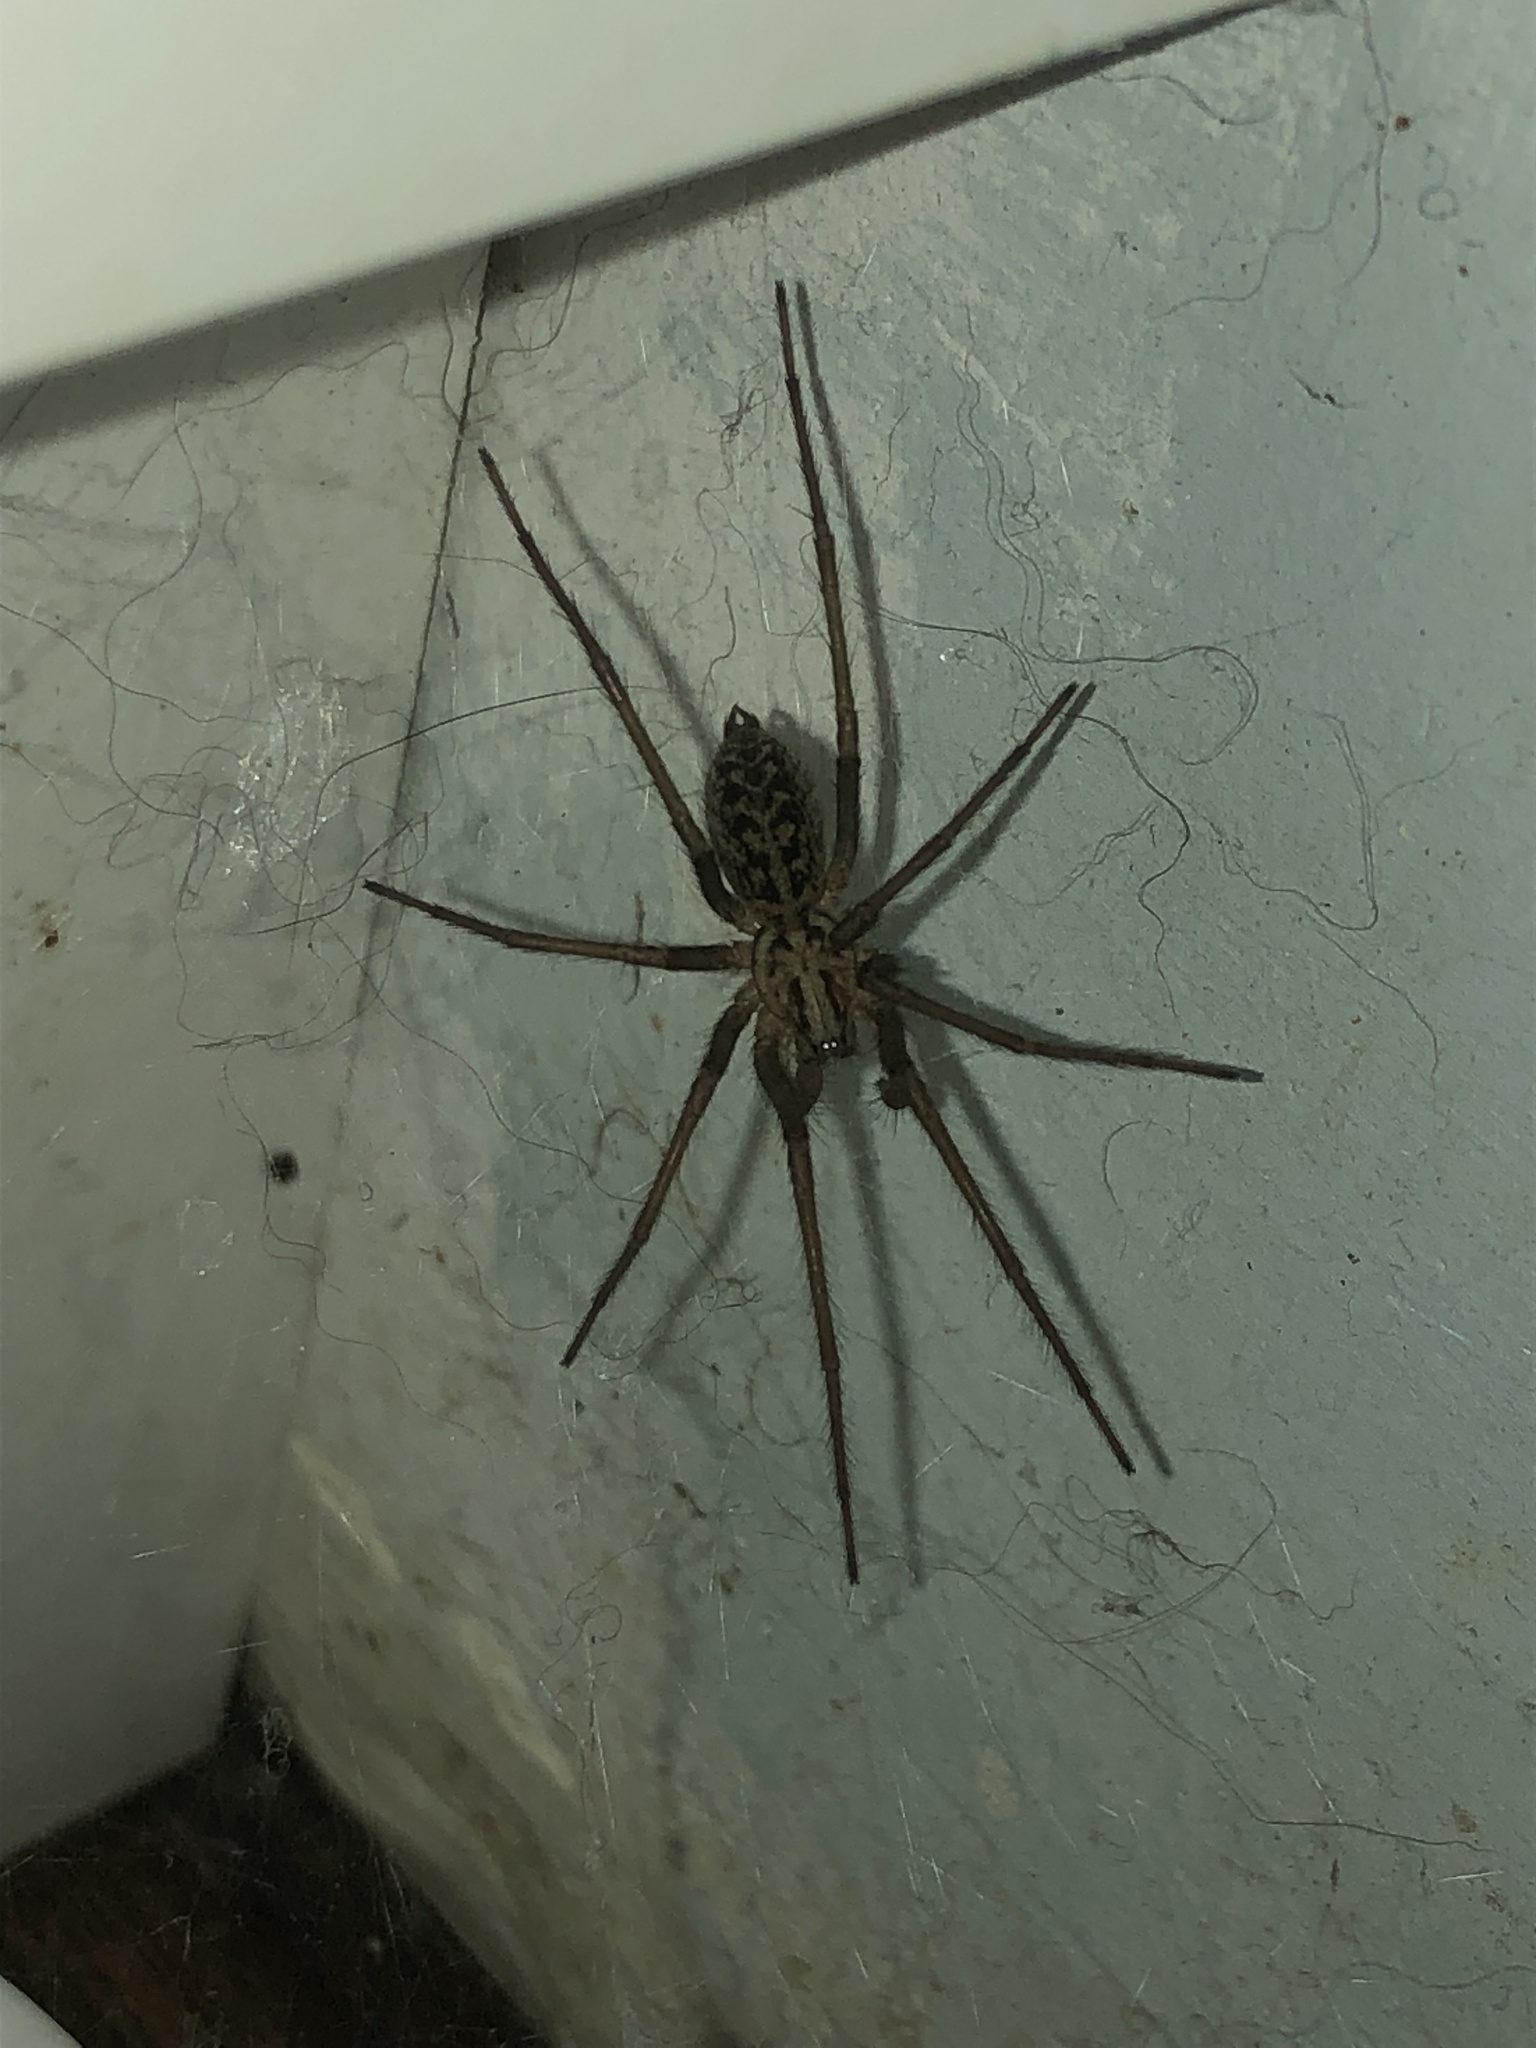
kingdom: Animalia
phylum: Arthropoda
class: Arachnida
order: Araneae
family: Agelenidae
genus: Eratigena
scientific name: Eratigena duellica
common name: Giant house spider
